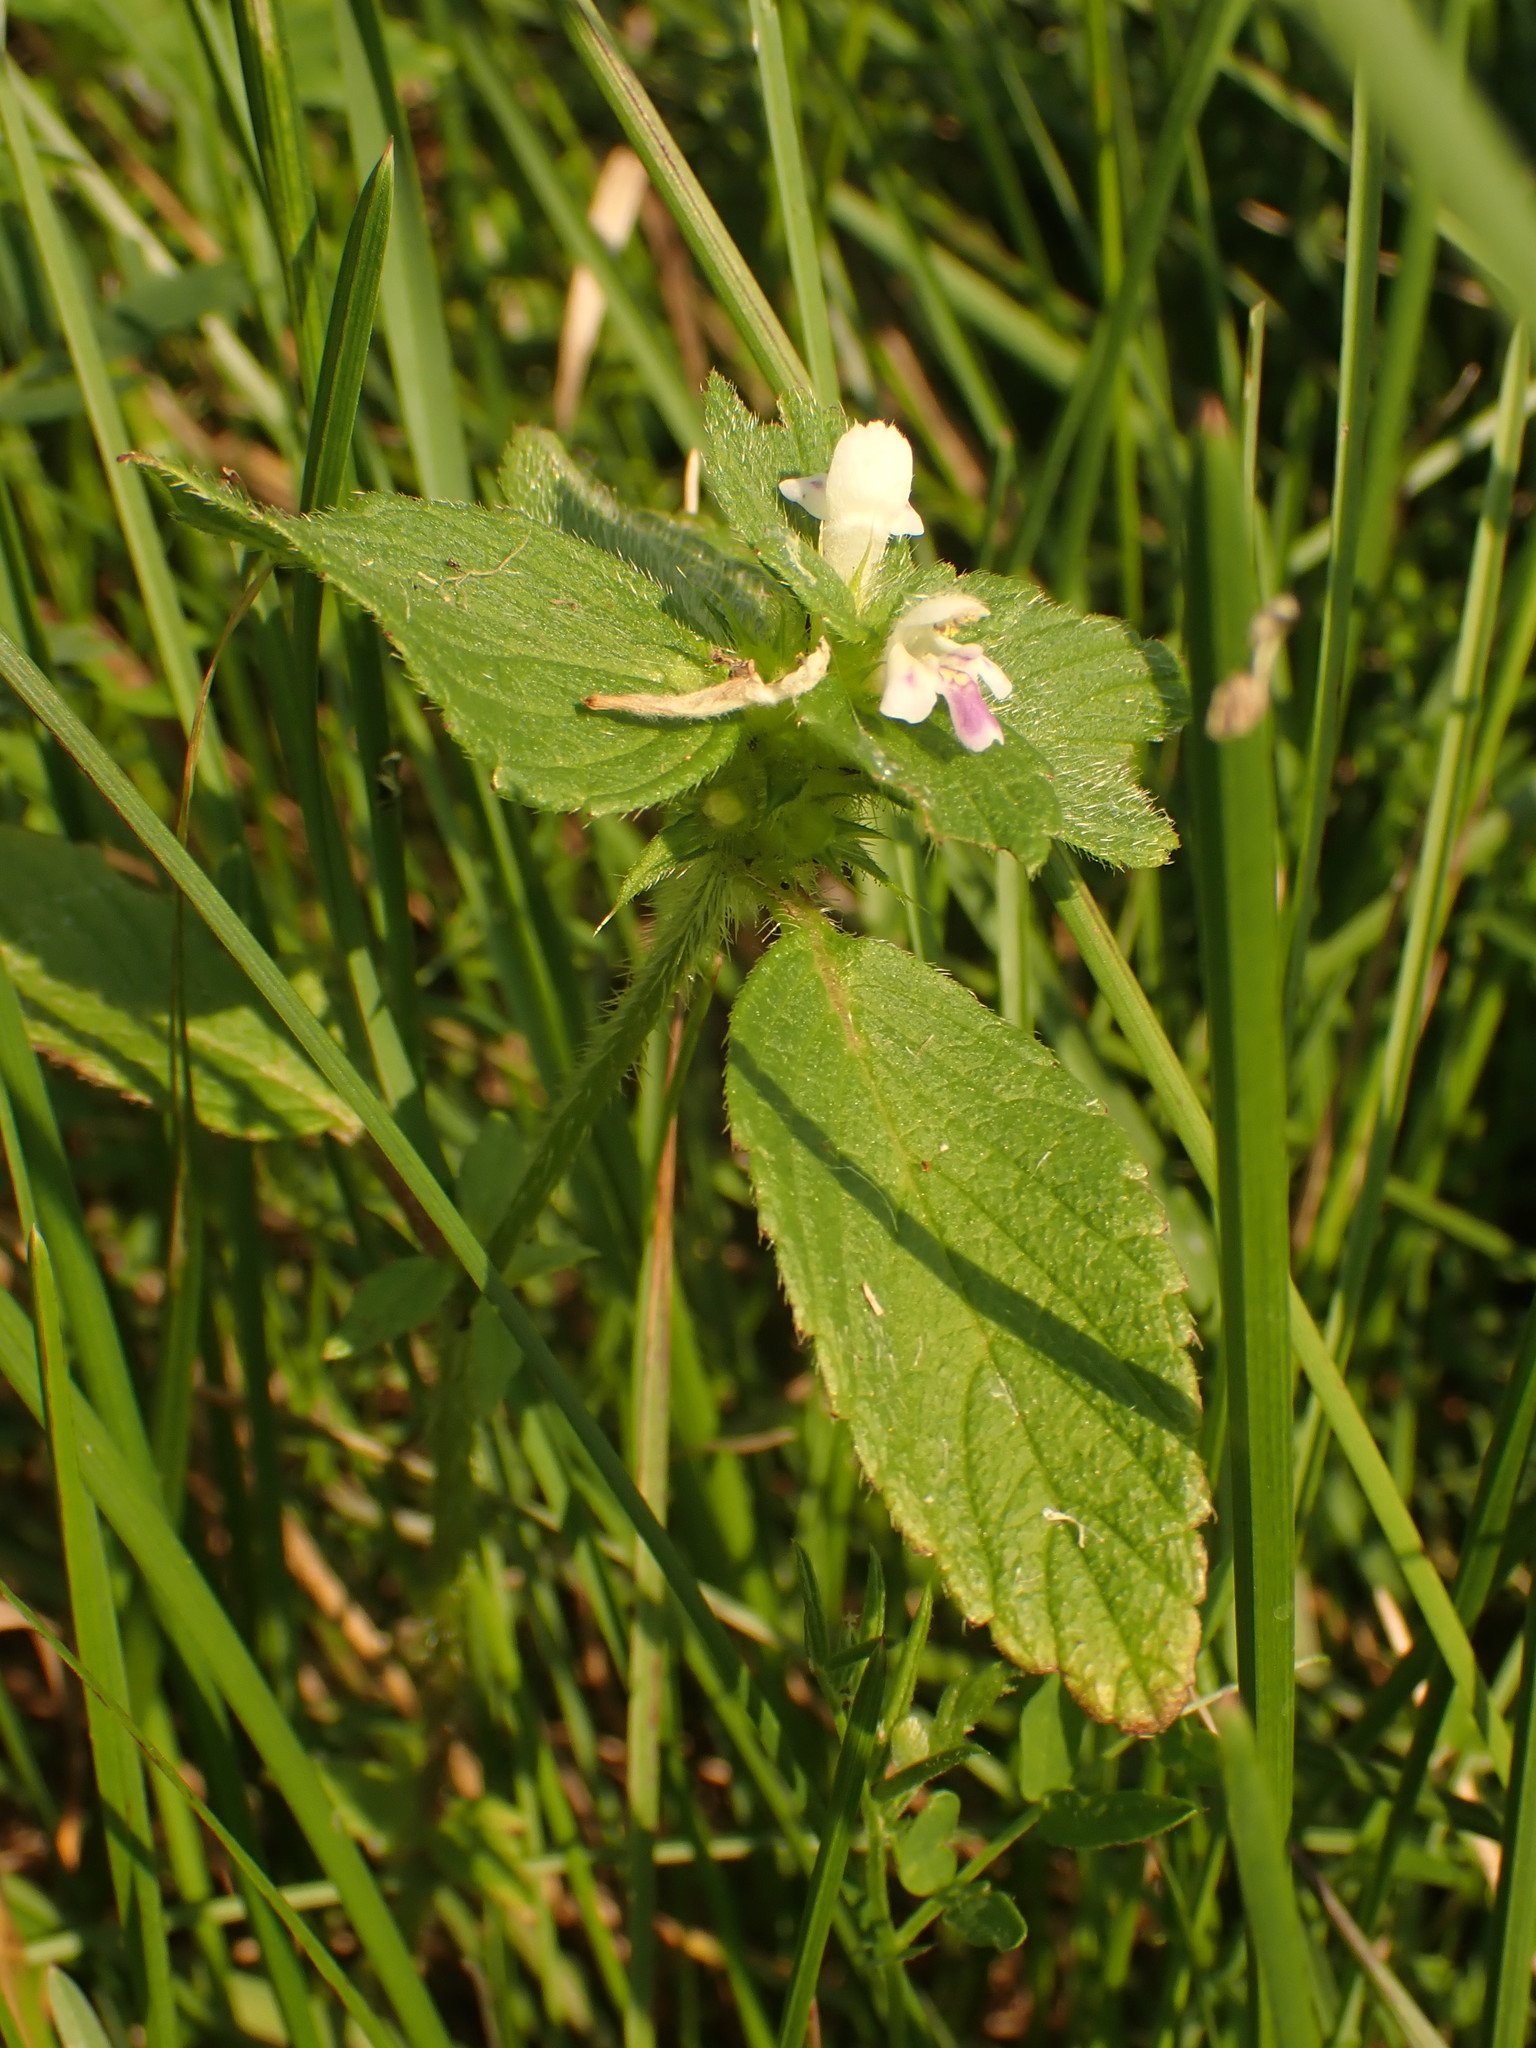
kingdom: Plantae
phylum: Tracheophyta
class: Magnoliopsida
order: Lamiales
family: Lamiaceae
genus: Galeopsis
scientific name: Galeopsis bifida
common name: Bifid hemp-nettle
